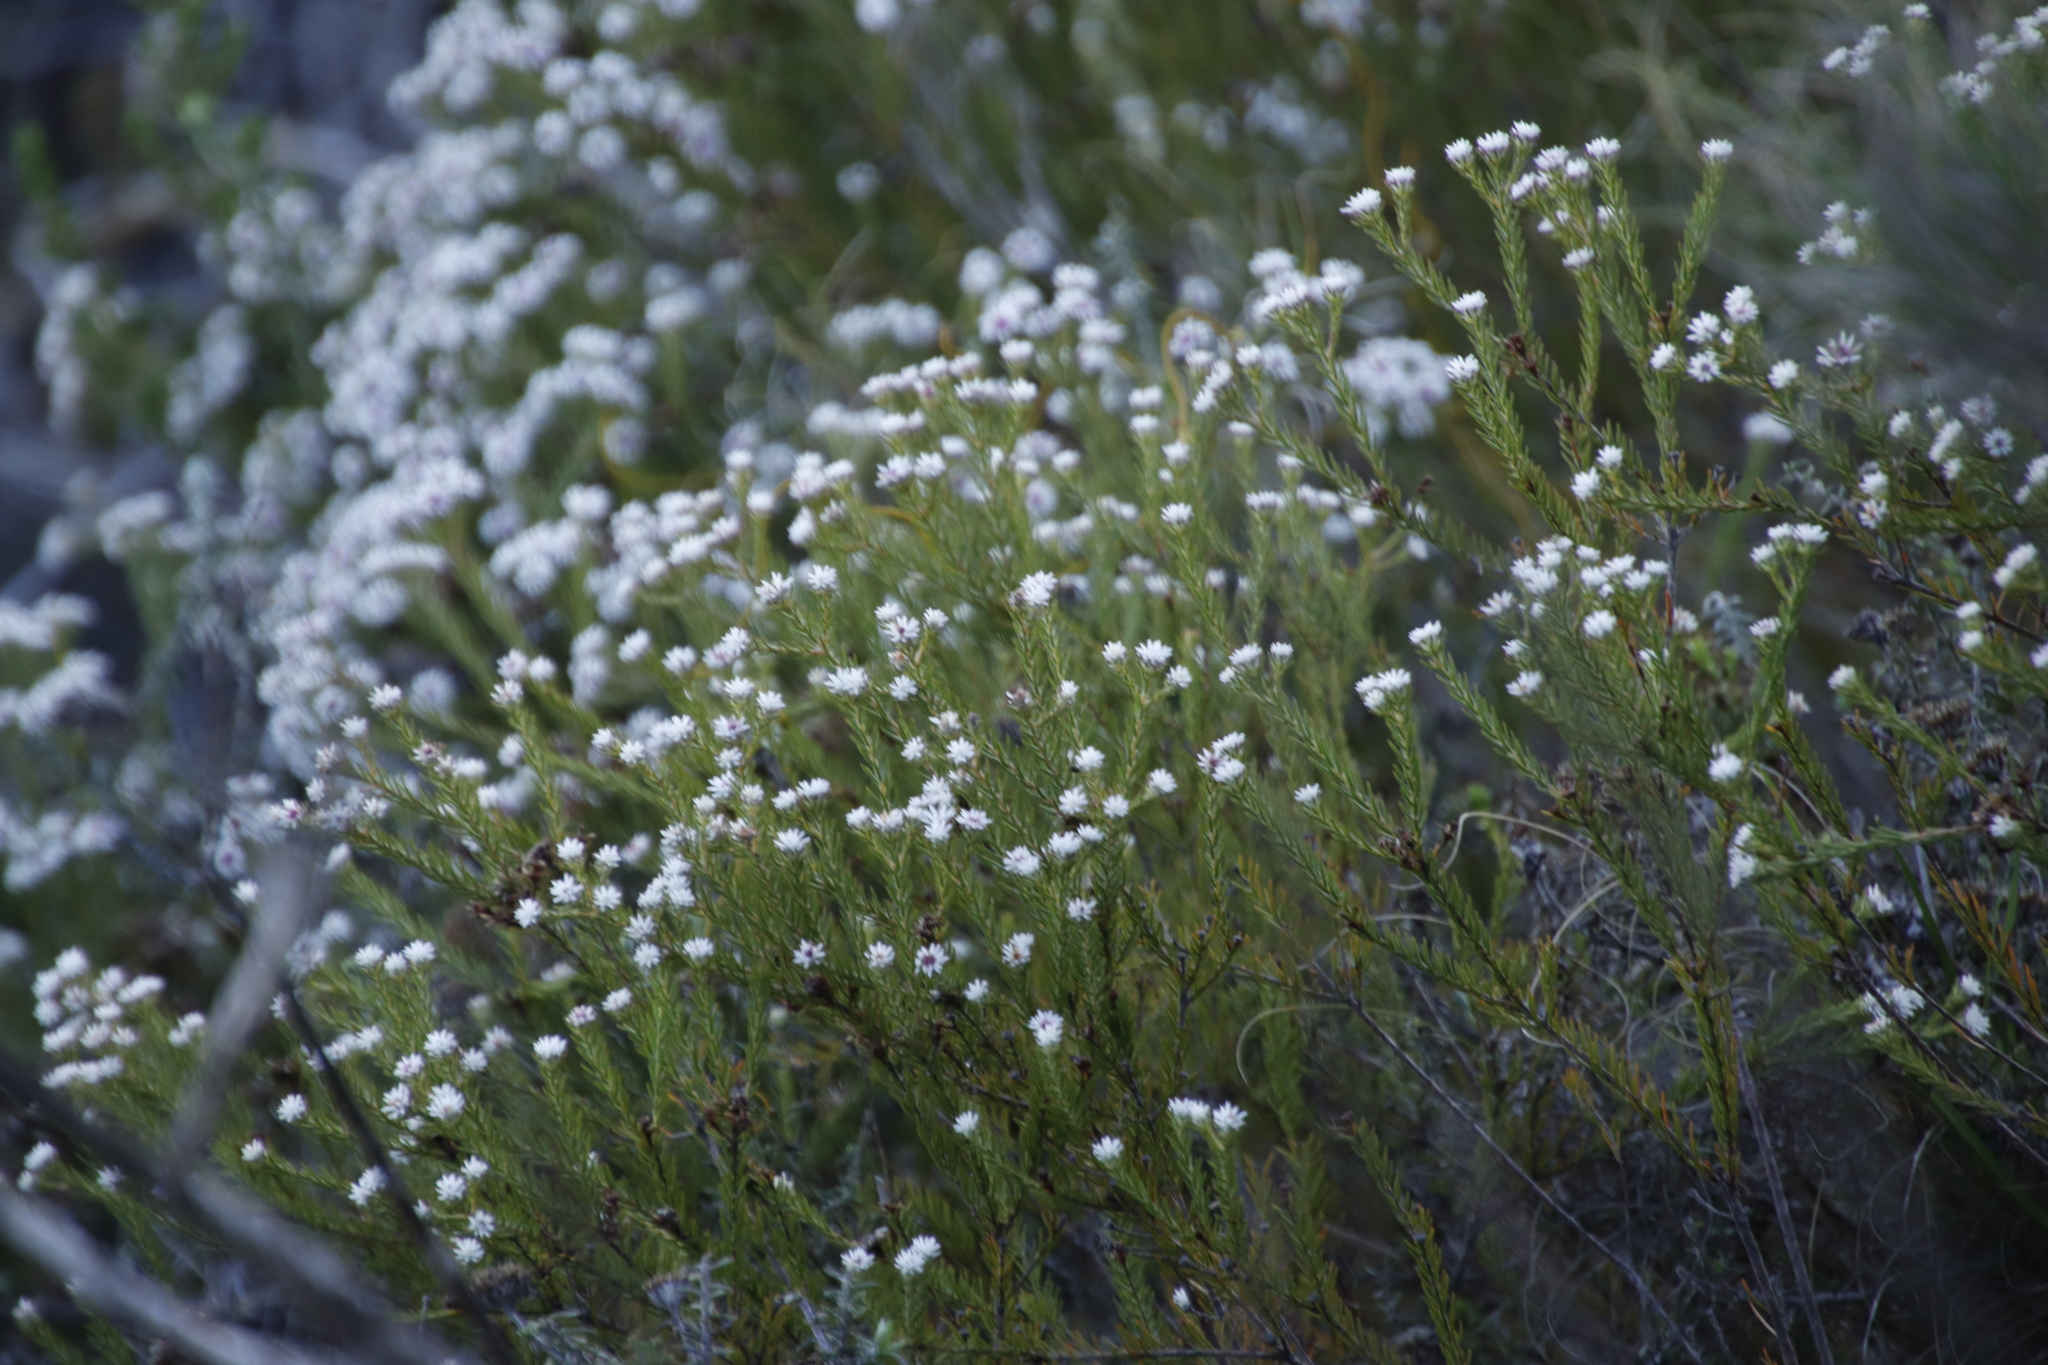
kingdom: Plantae
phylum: Tracheophyta
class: Magnoliopsida
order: Bruniales
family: Bruniaceae
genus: Staavia
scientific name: Staavia radiata
